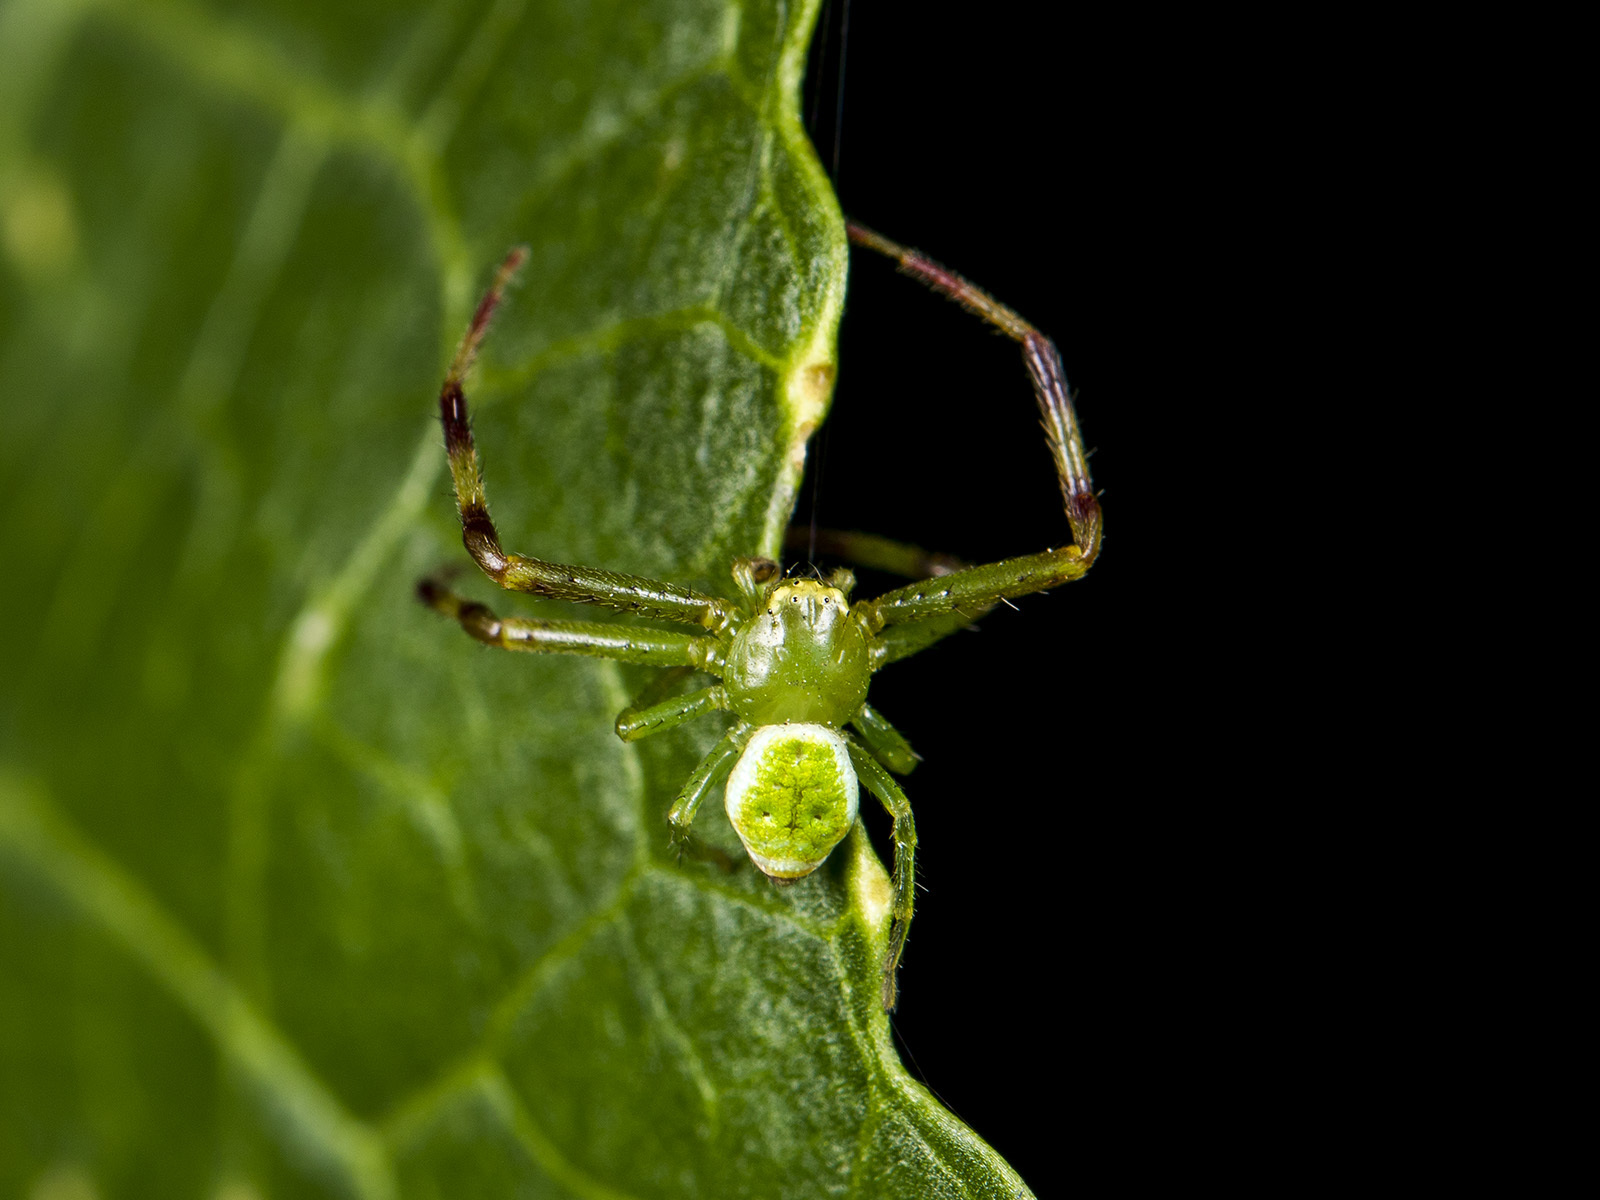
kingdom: Animalia
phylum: Arthropoda
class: Arachnida
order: Araneae
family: Thomisidae
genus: Ebrechtella
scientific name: Ebrechtella tricuspidata
